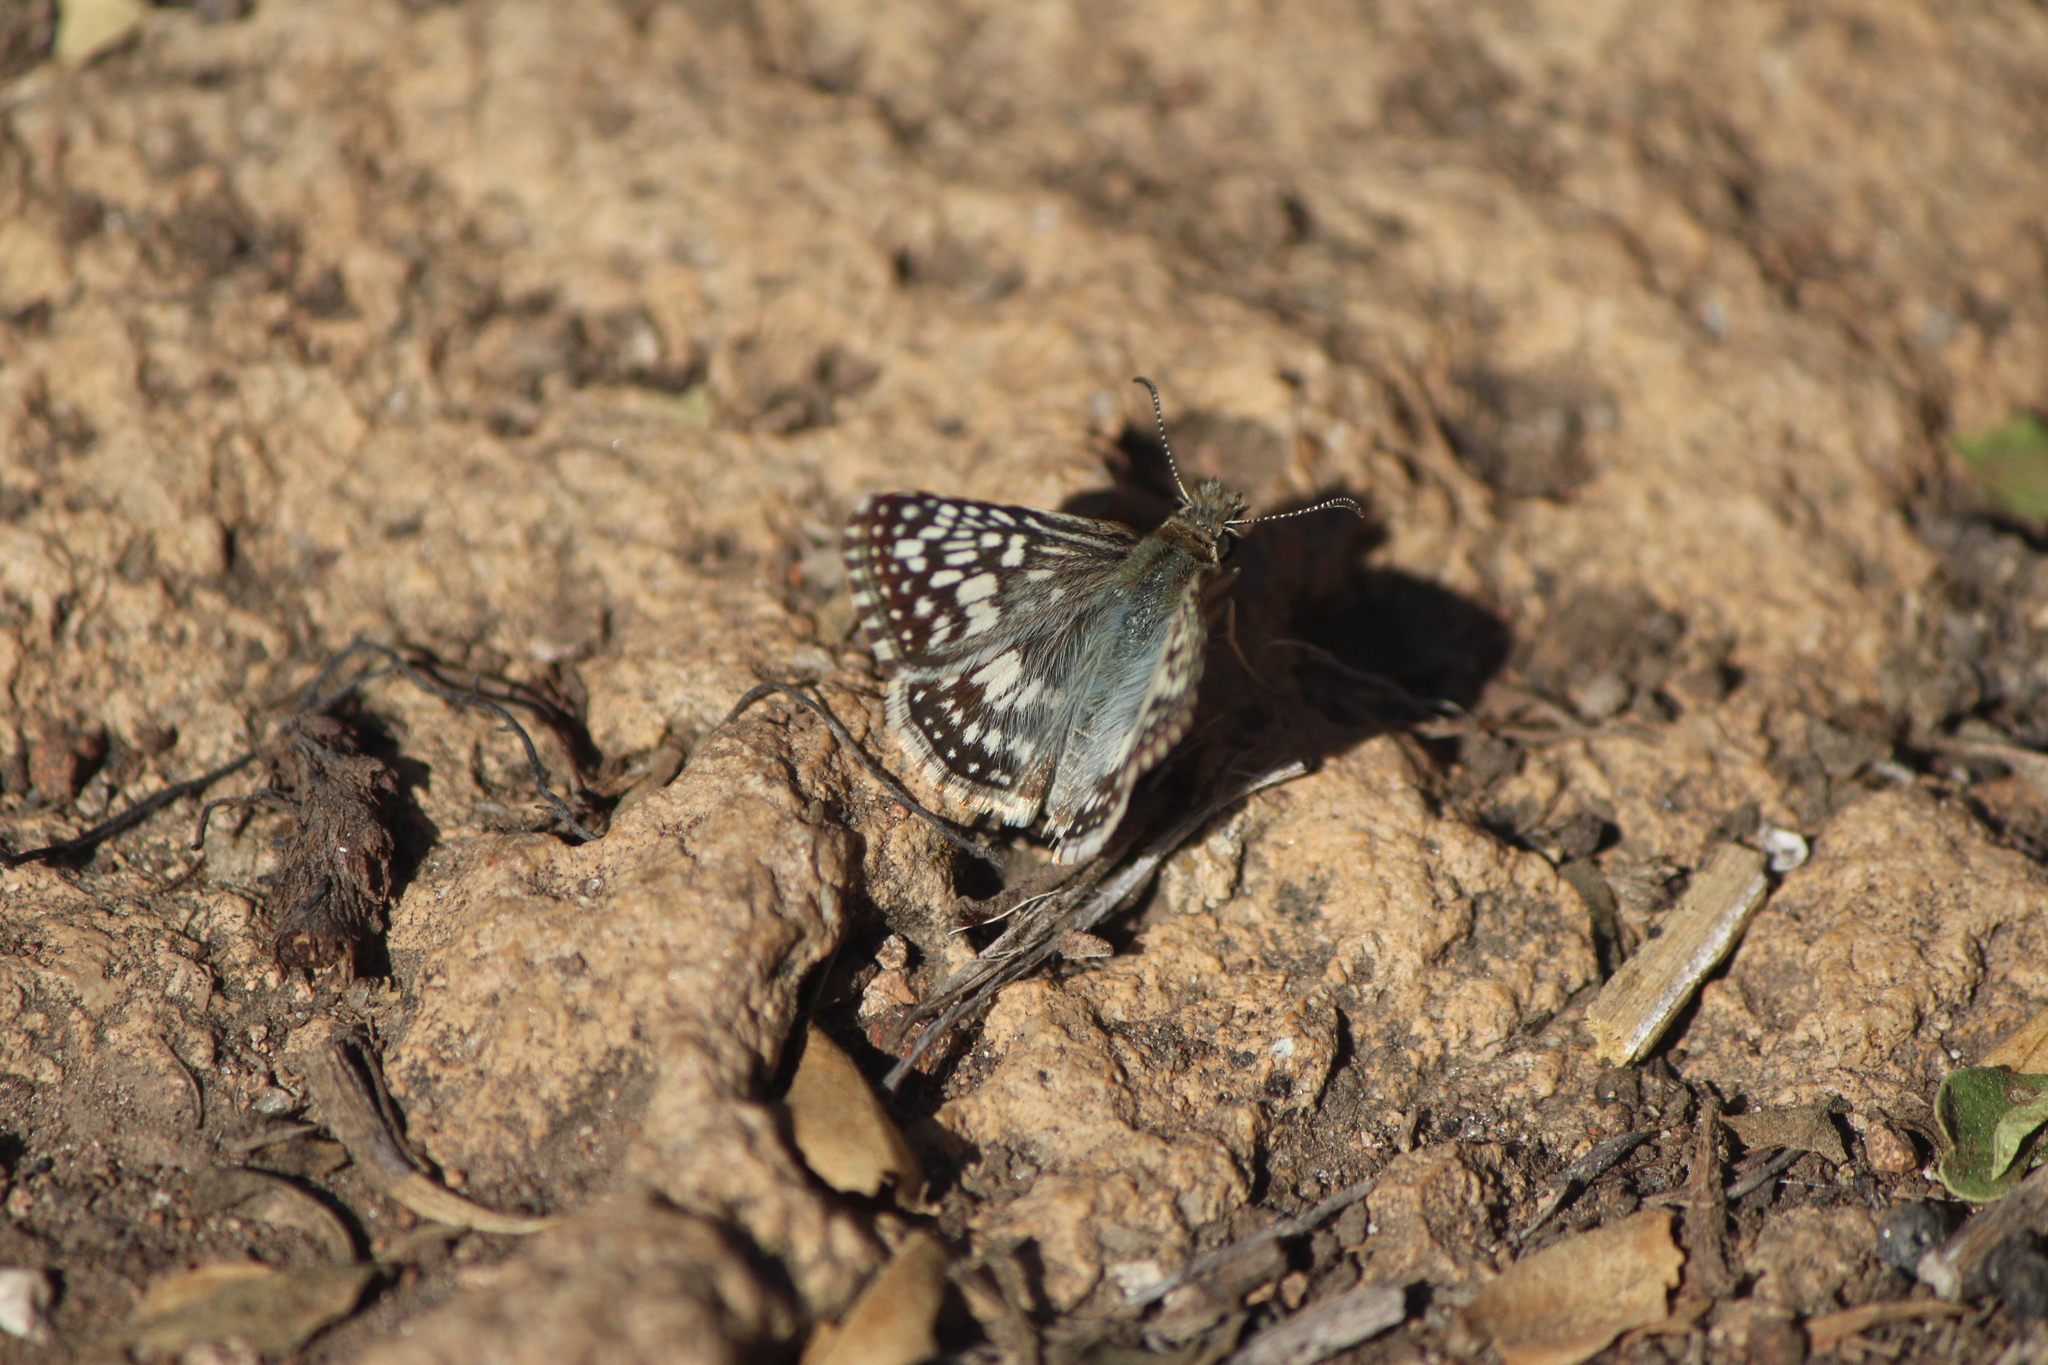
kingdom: Animalia
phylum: Arthropoda
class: Insecta
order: Lepidoptera
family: Hesperiidae
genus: Burnsius
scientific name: Burnsius philetas
